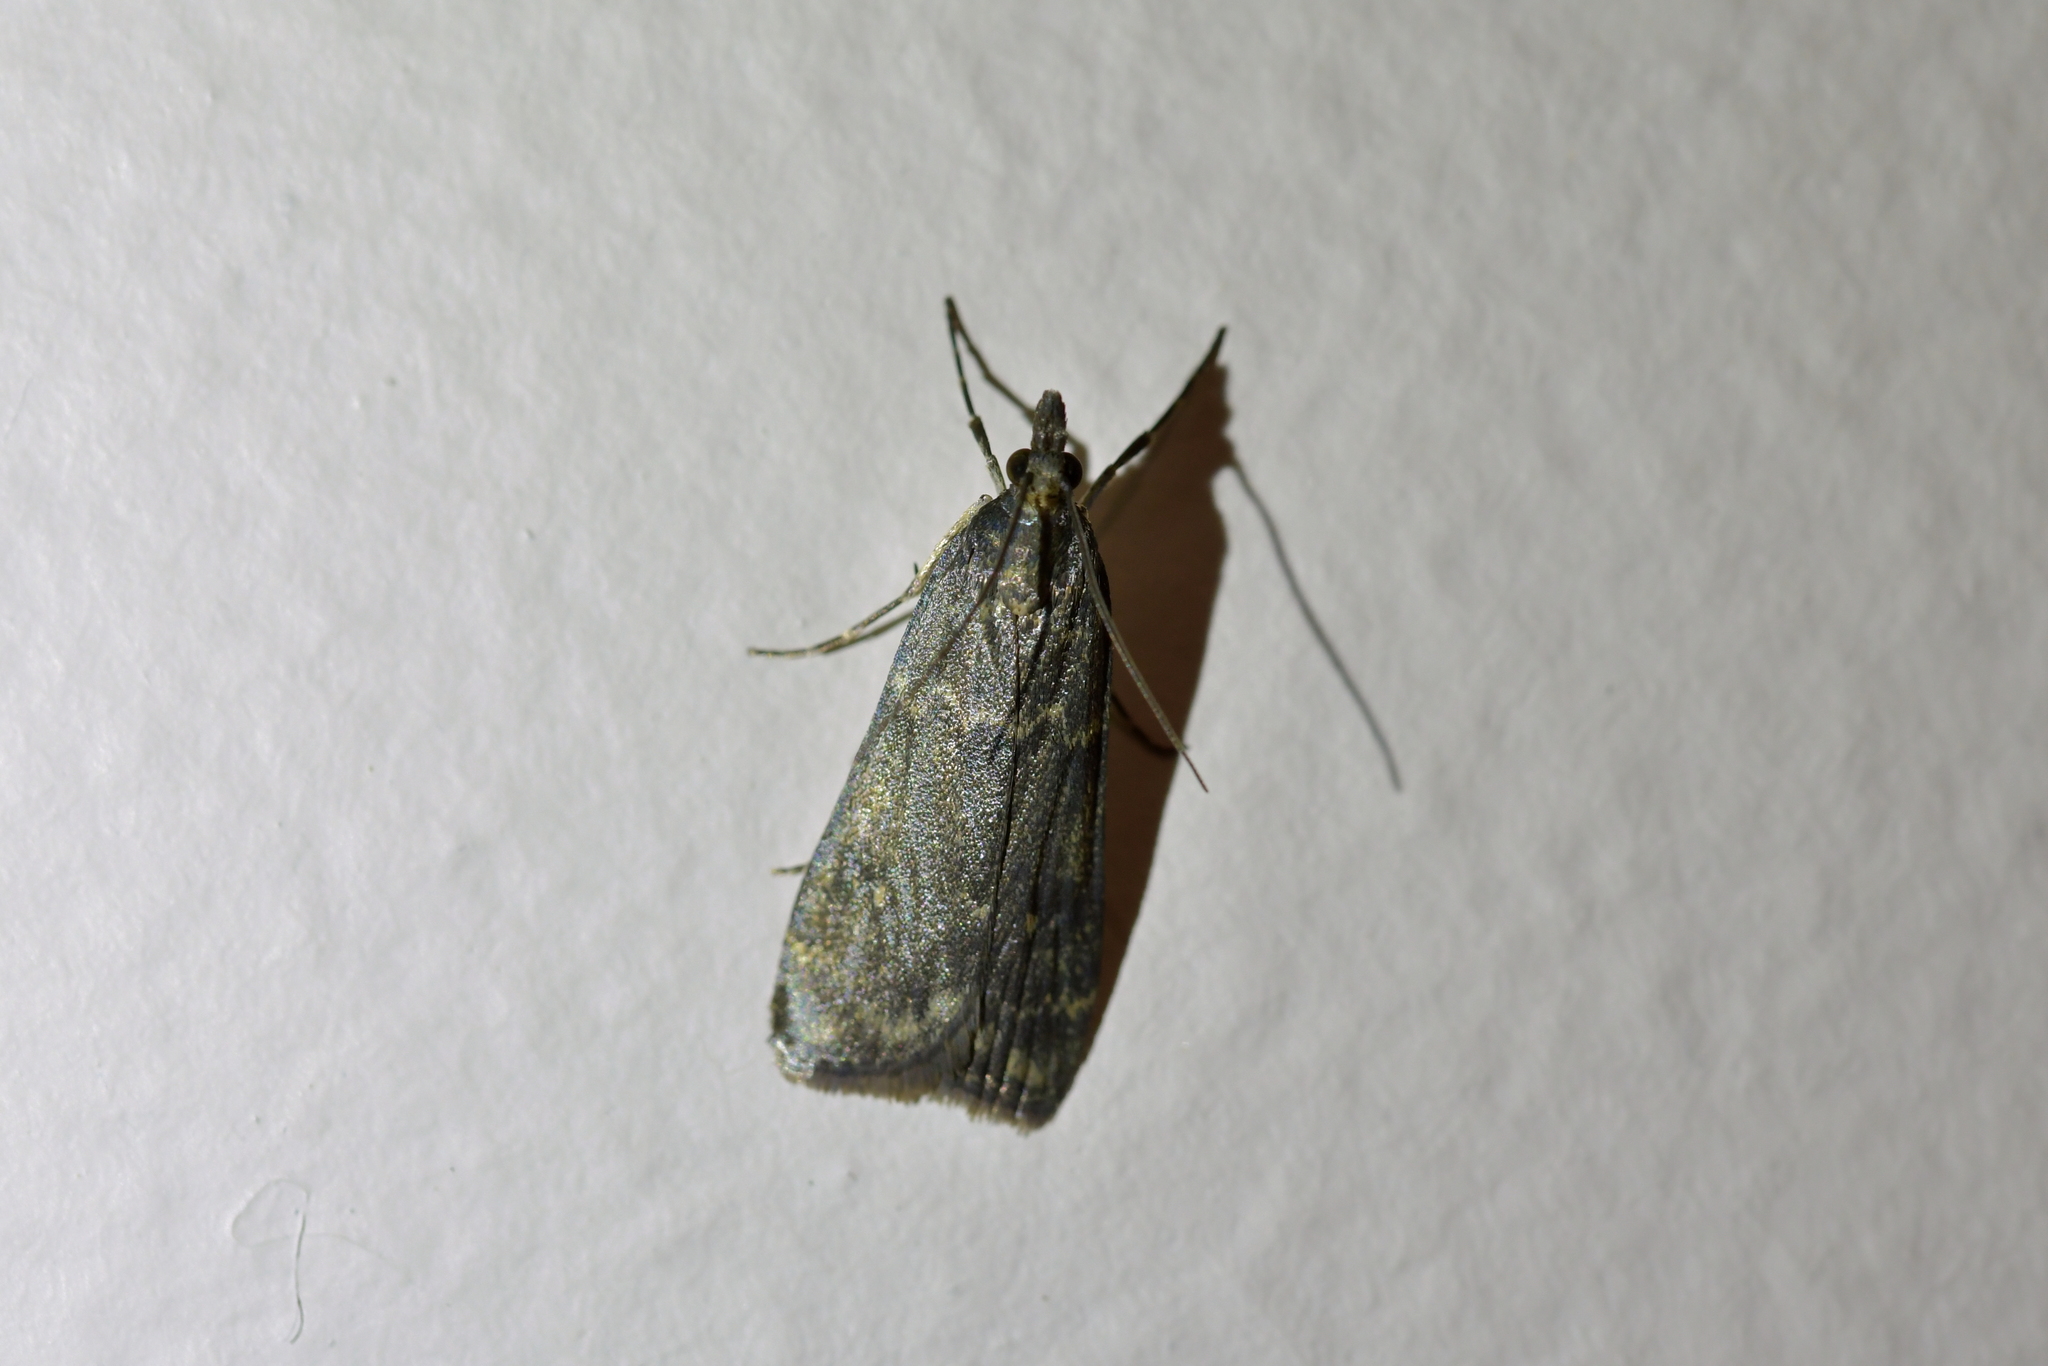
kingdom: Animalia
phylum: Arthropoda
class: Insecta
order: Lepidoptera
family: Crambidae
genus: Eudonia
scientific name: Eudonia cataxesta
